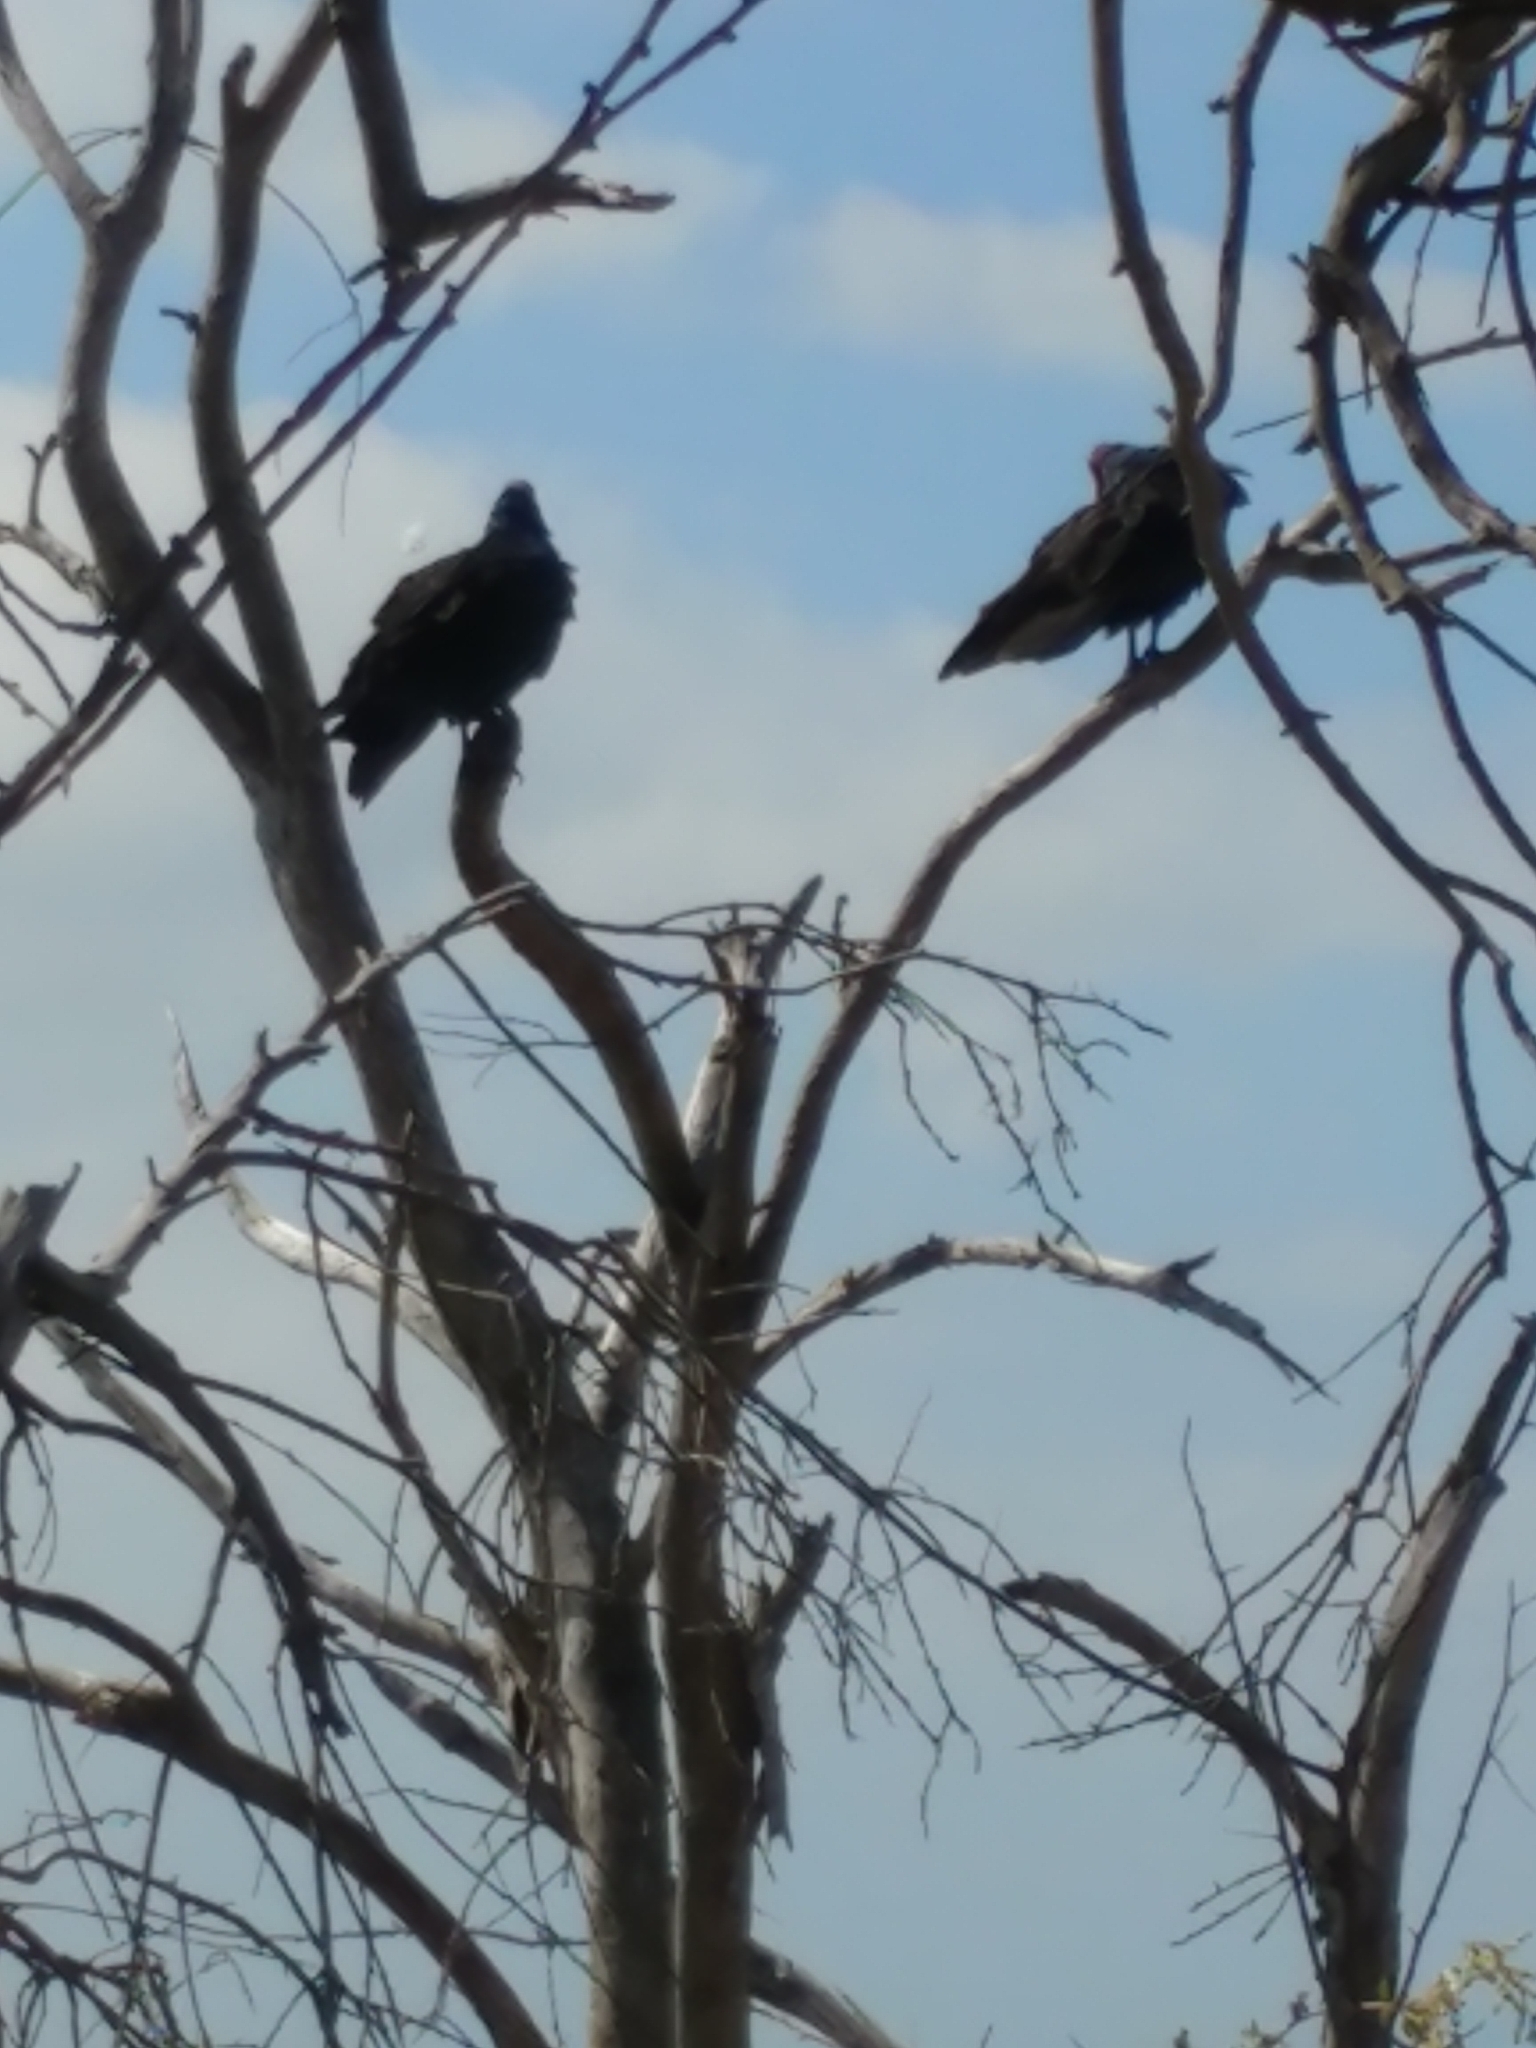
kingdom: Animalia
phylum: Chordata
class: Aves
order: Accipitriformes
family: Cathartidae
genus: Cathartes
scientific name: Cathartes aura
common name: Turkey vulture
